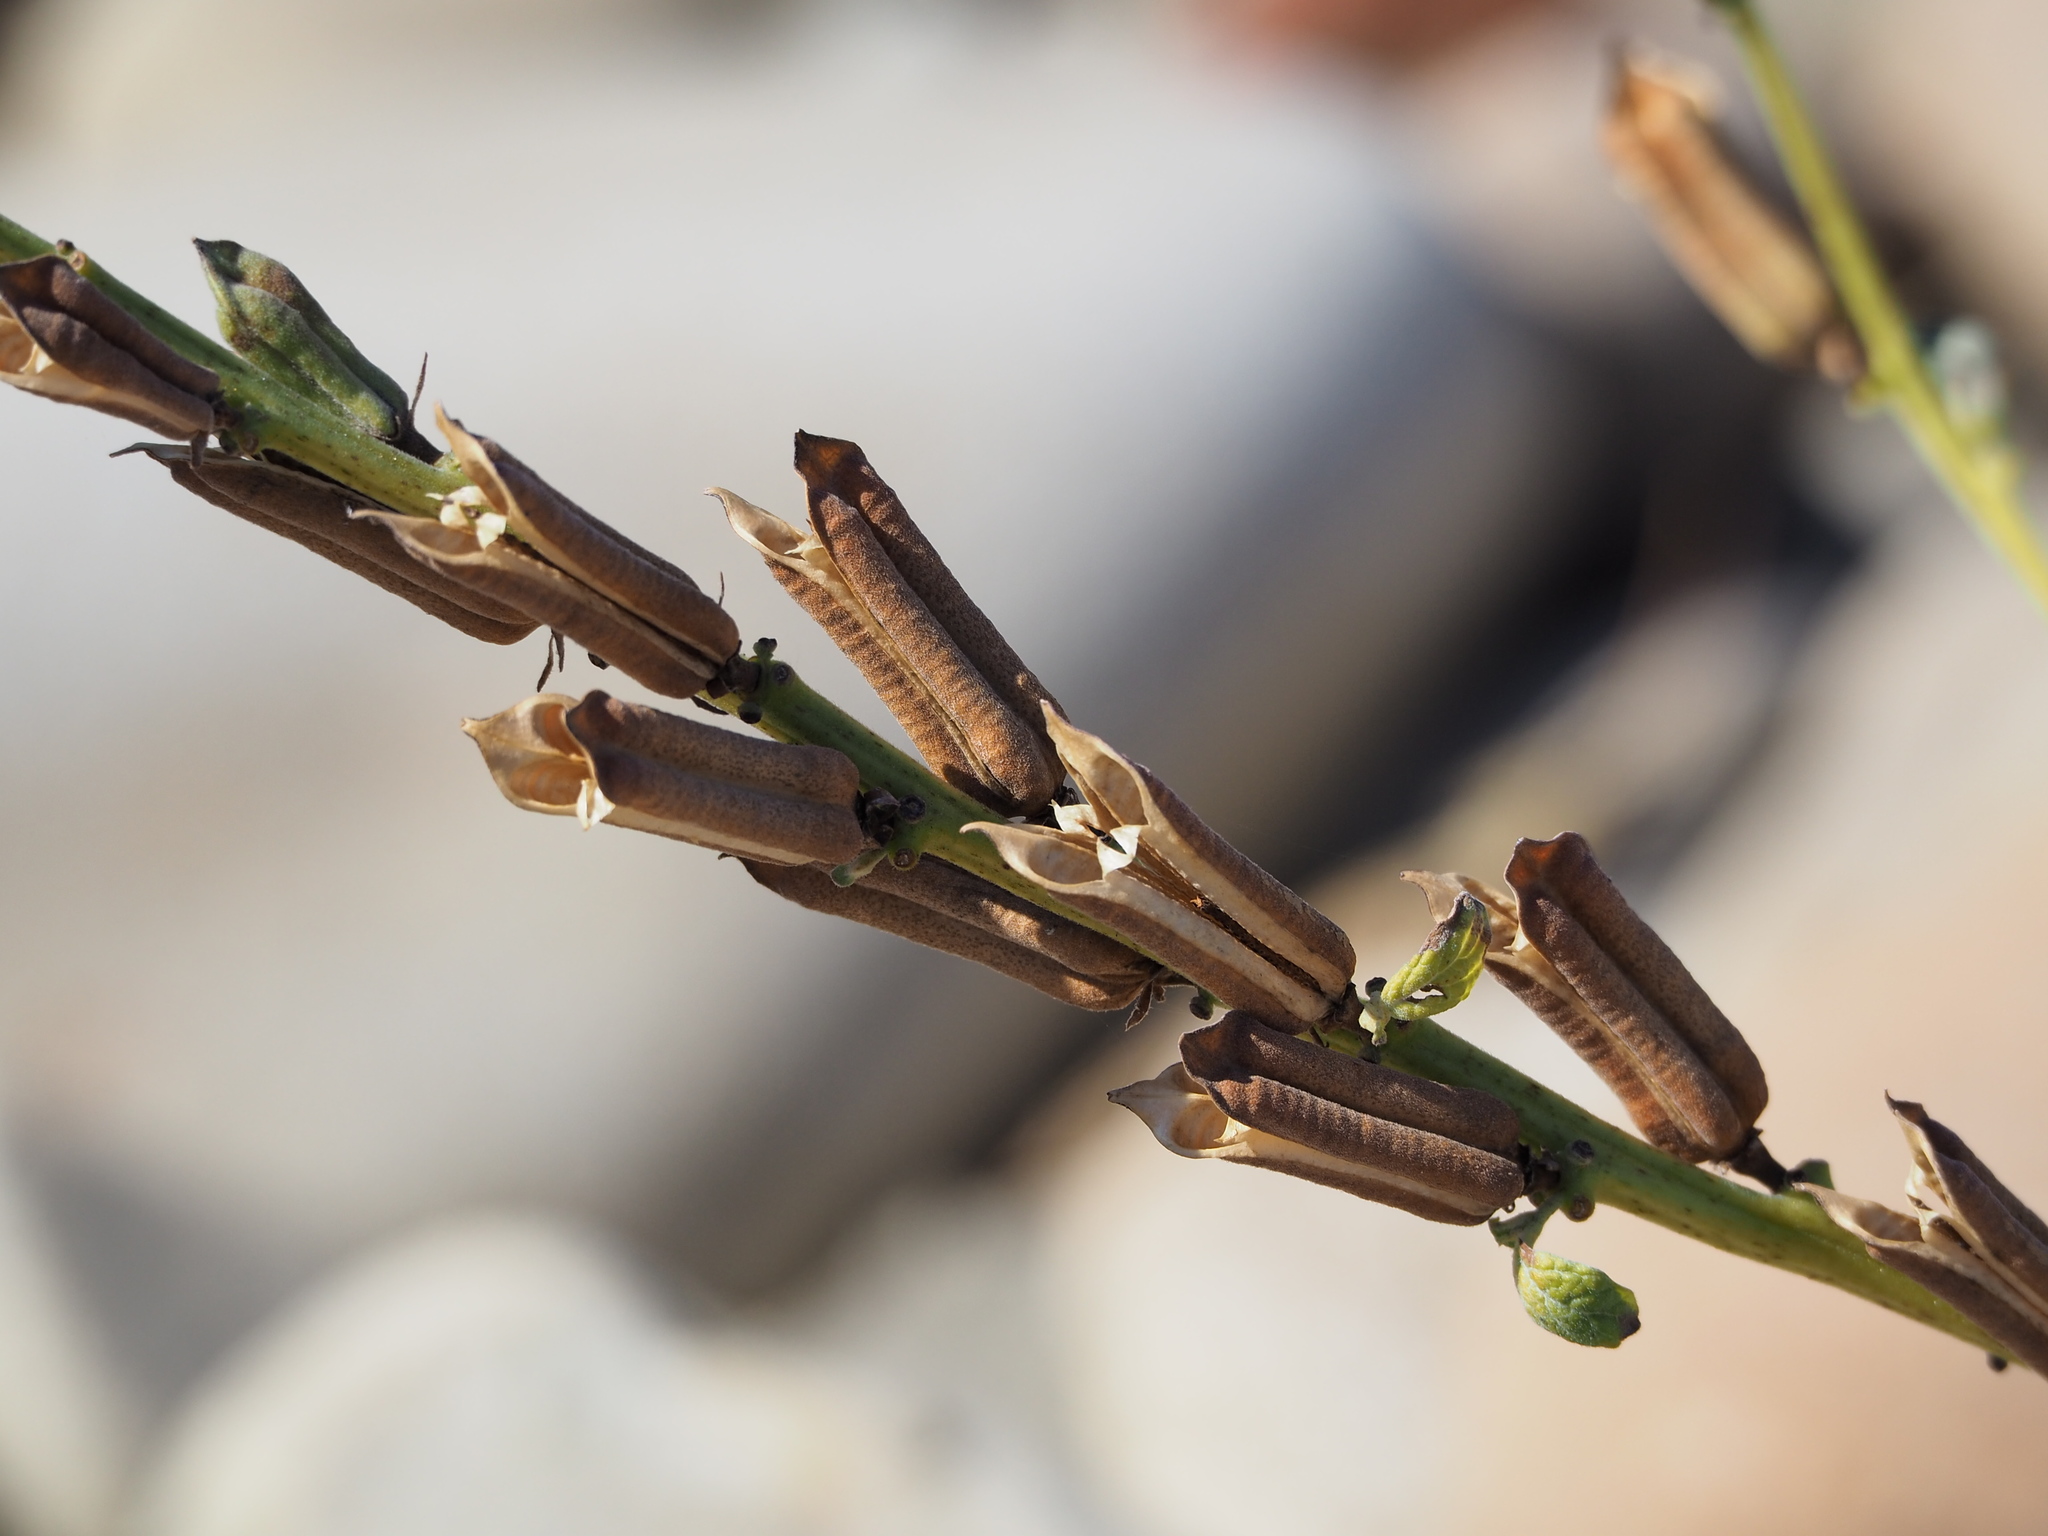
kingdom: Plantae
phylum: Tracheophyta
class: Magnoliopsida
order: Lamiales
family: Pedaliaceae
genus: Sesamum
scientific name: Sesamum indicum
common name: Sesame
